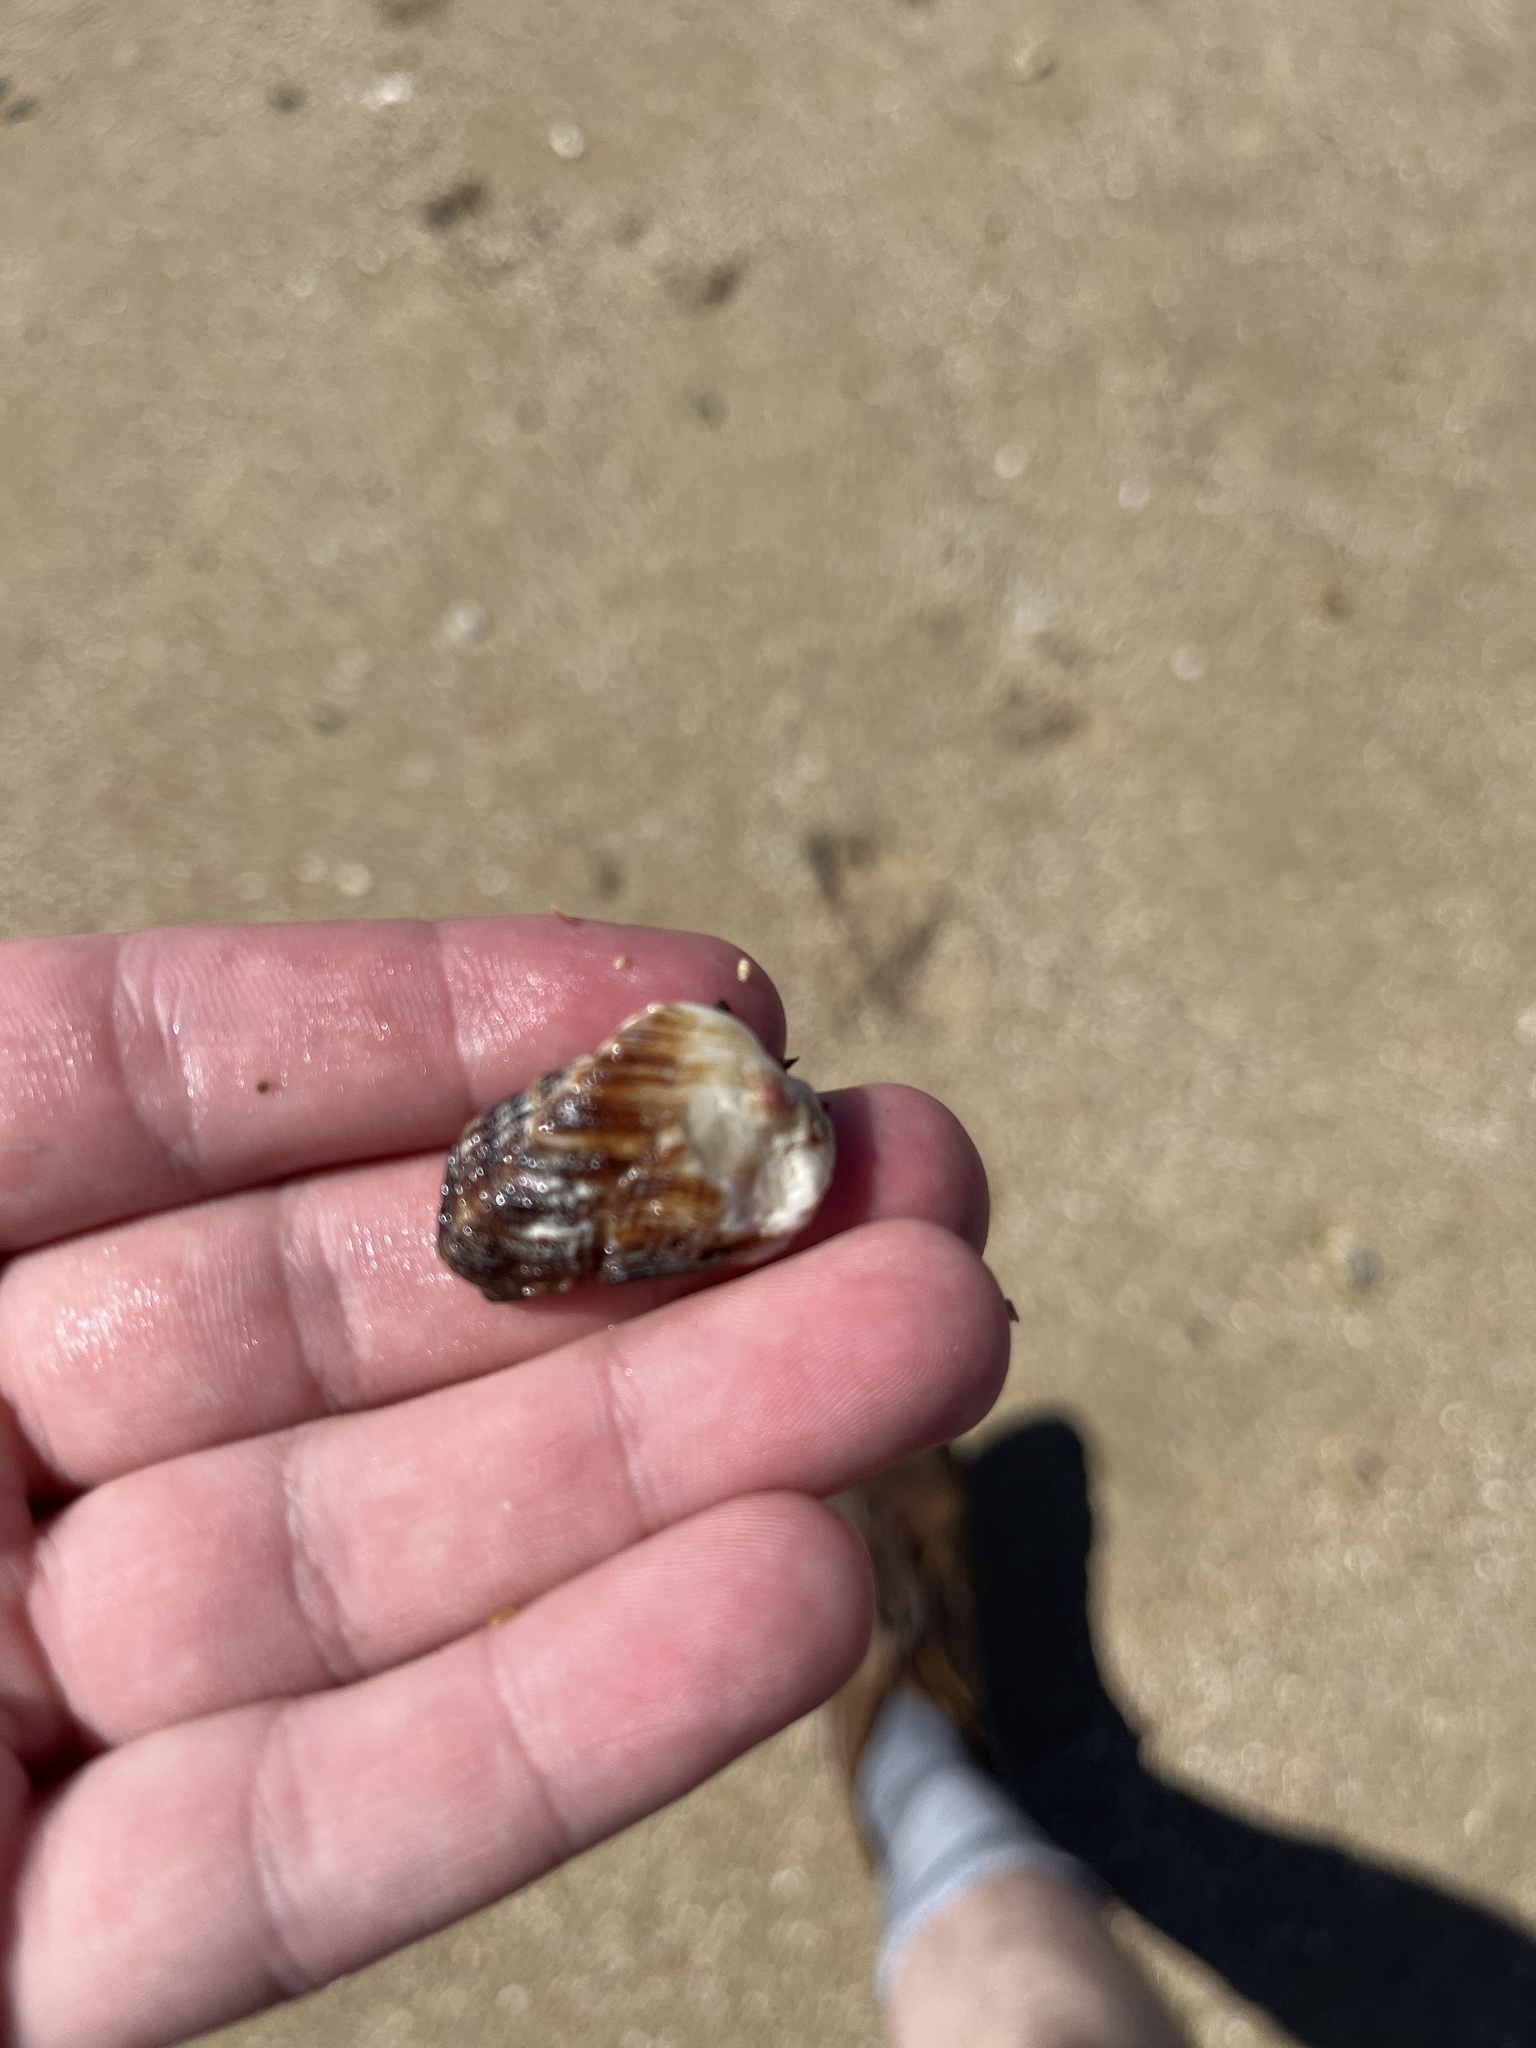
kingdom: Animalia
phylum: Mollusca
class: Bivalvia
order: Arcida
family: Arcidae
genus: Lamarcka
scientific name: Lamarcka imbricata
